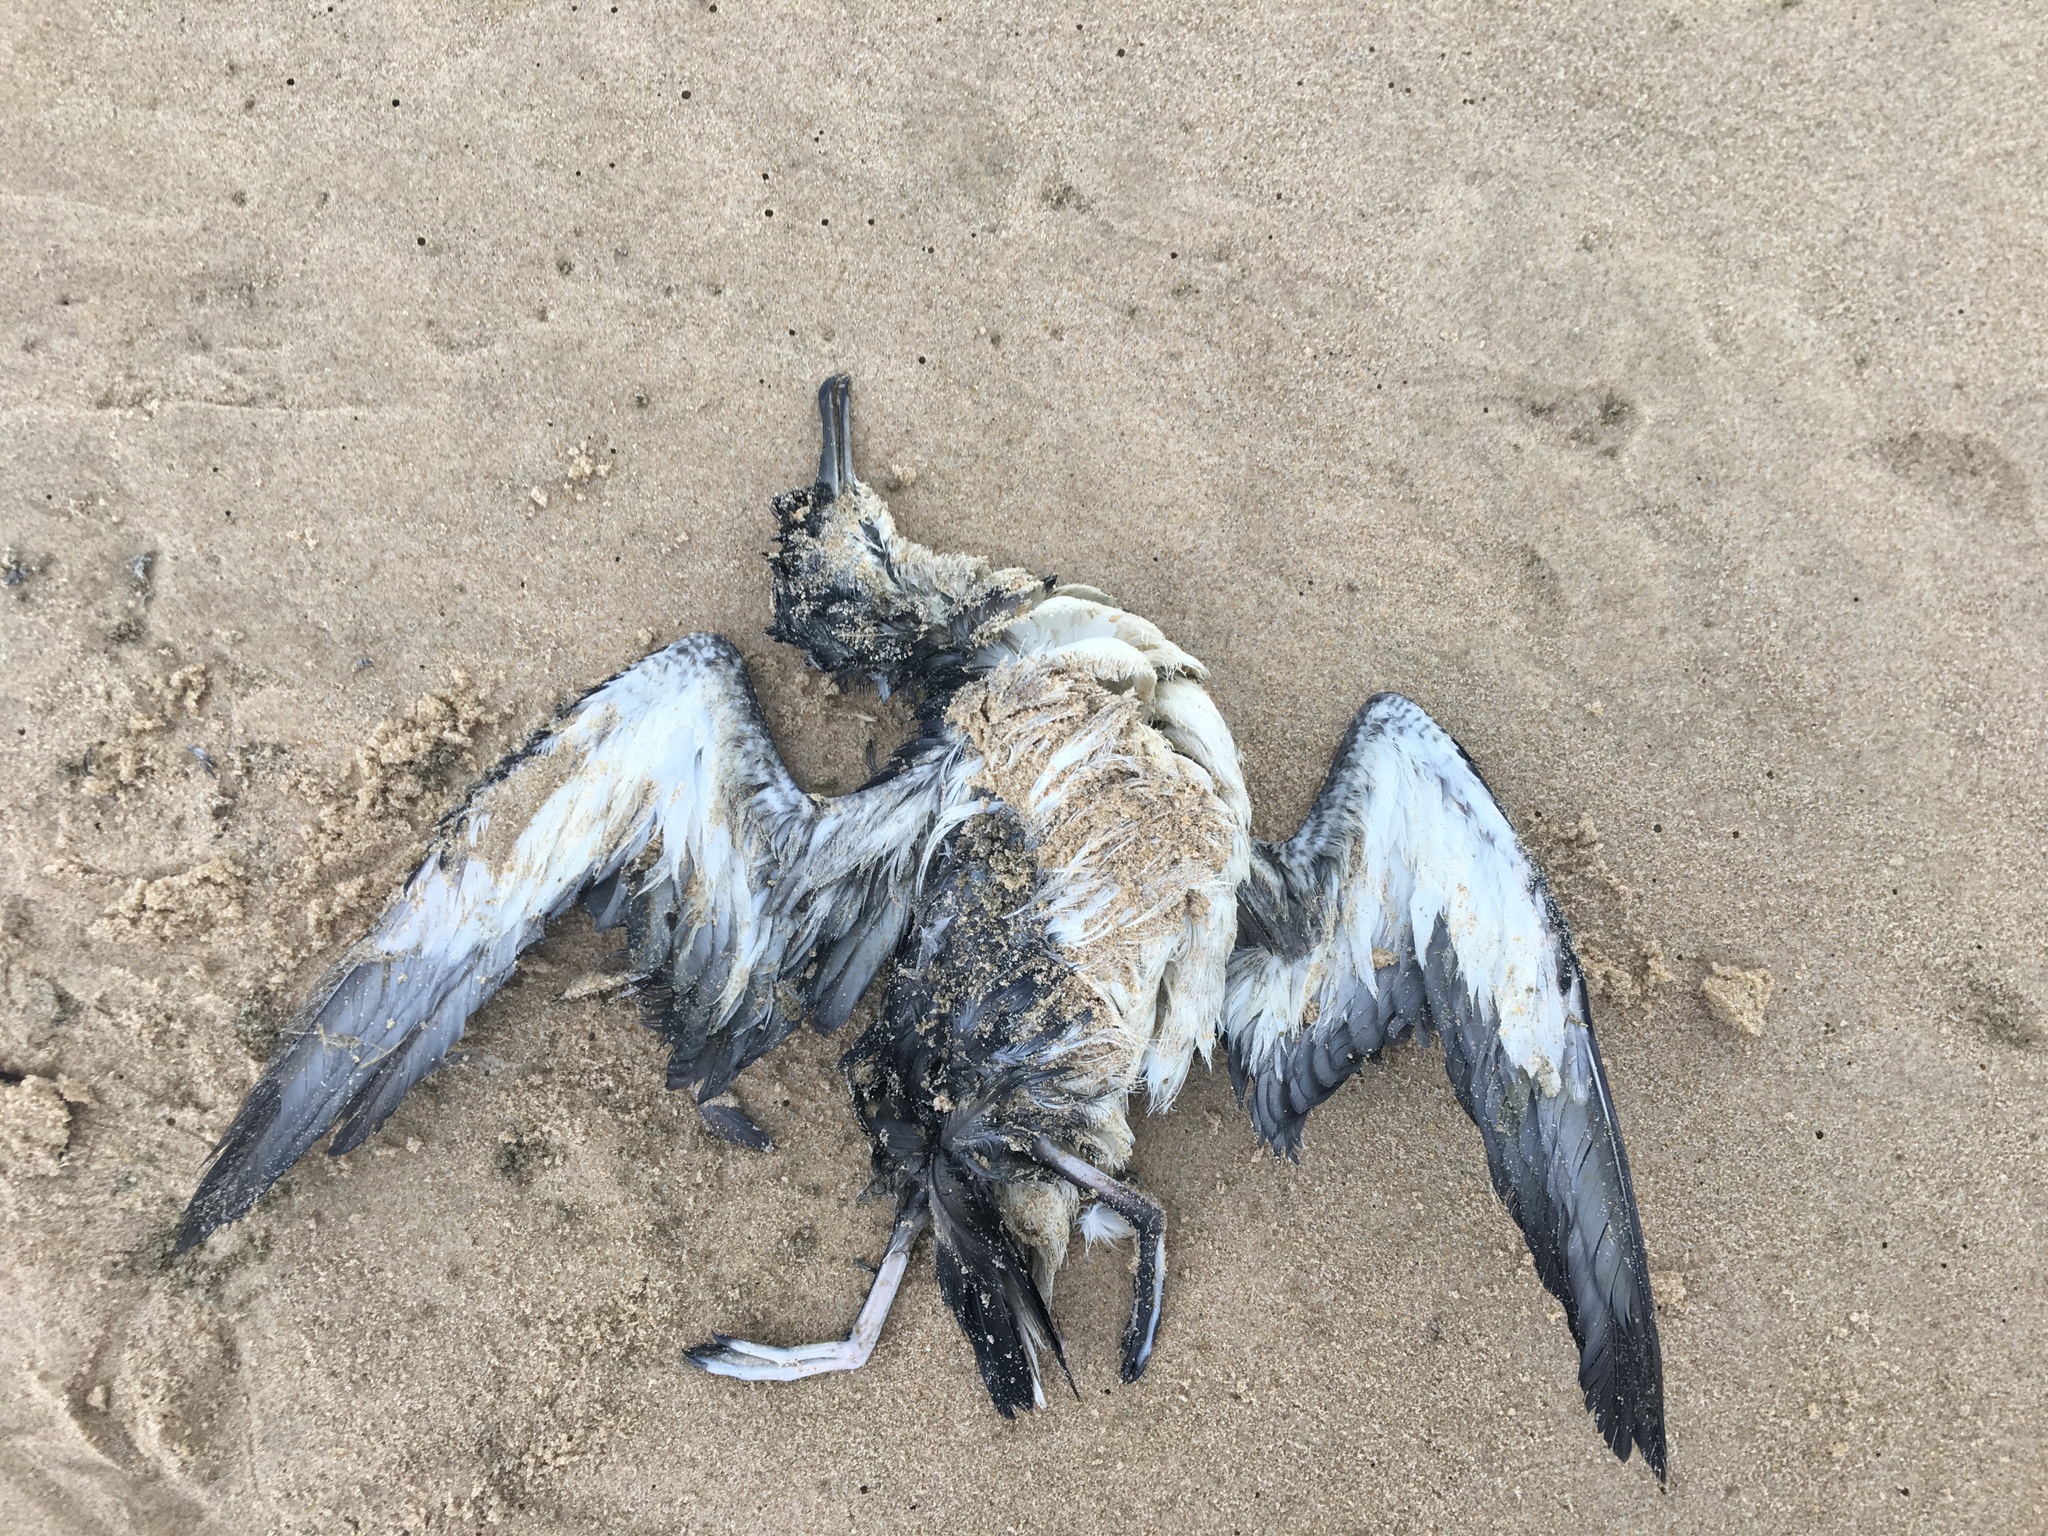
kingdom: Animalia
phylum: Chordata
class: Aves
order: Procellariiformes
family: Procellariidae
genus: Puffinus
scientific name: Puffinus gavia
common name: Fluttering shearwater
